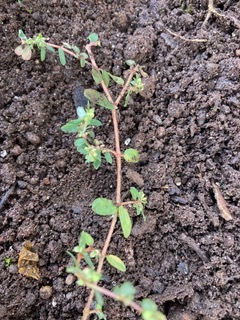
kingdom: Plantae
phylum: Tracheophyta
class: Magnoliopsida
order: Malpighiales
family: Euphorbiaceae
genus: Euphorbia
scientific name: Euphorbia maculata
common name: Spotted spurge
